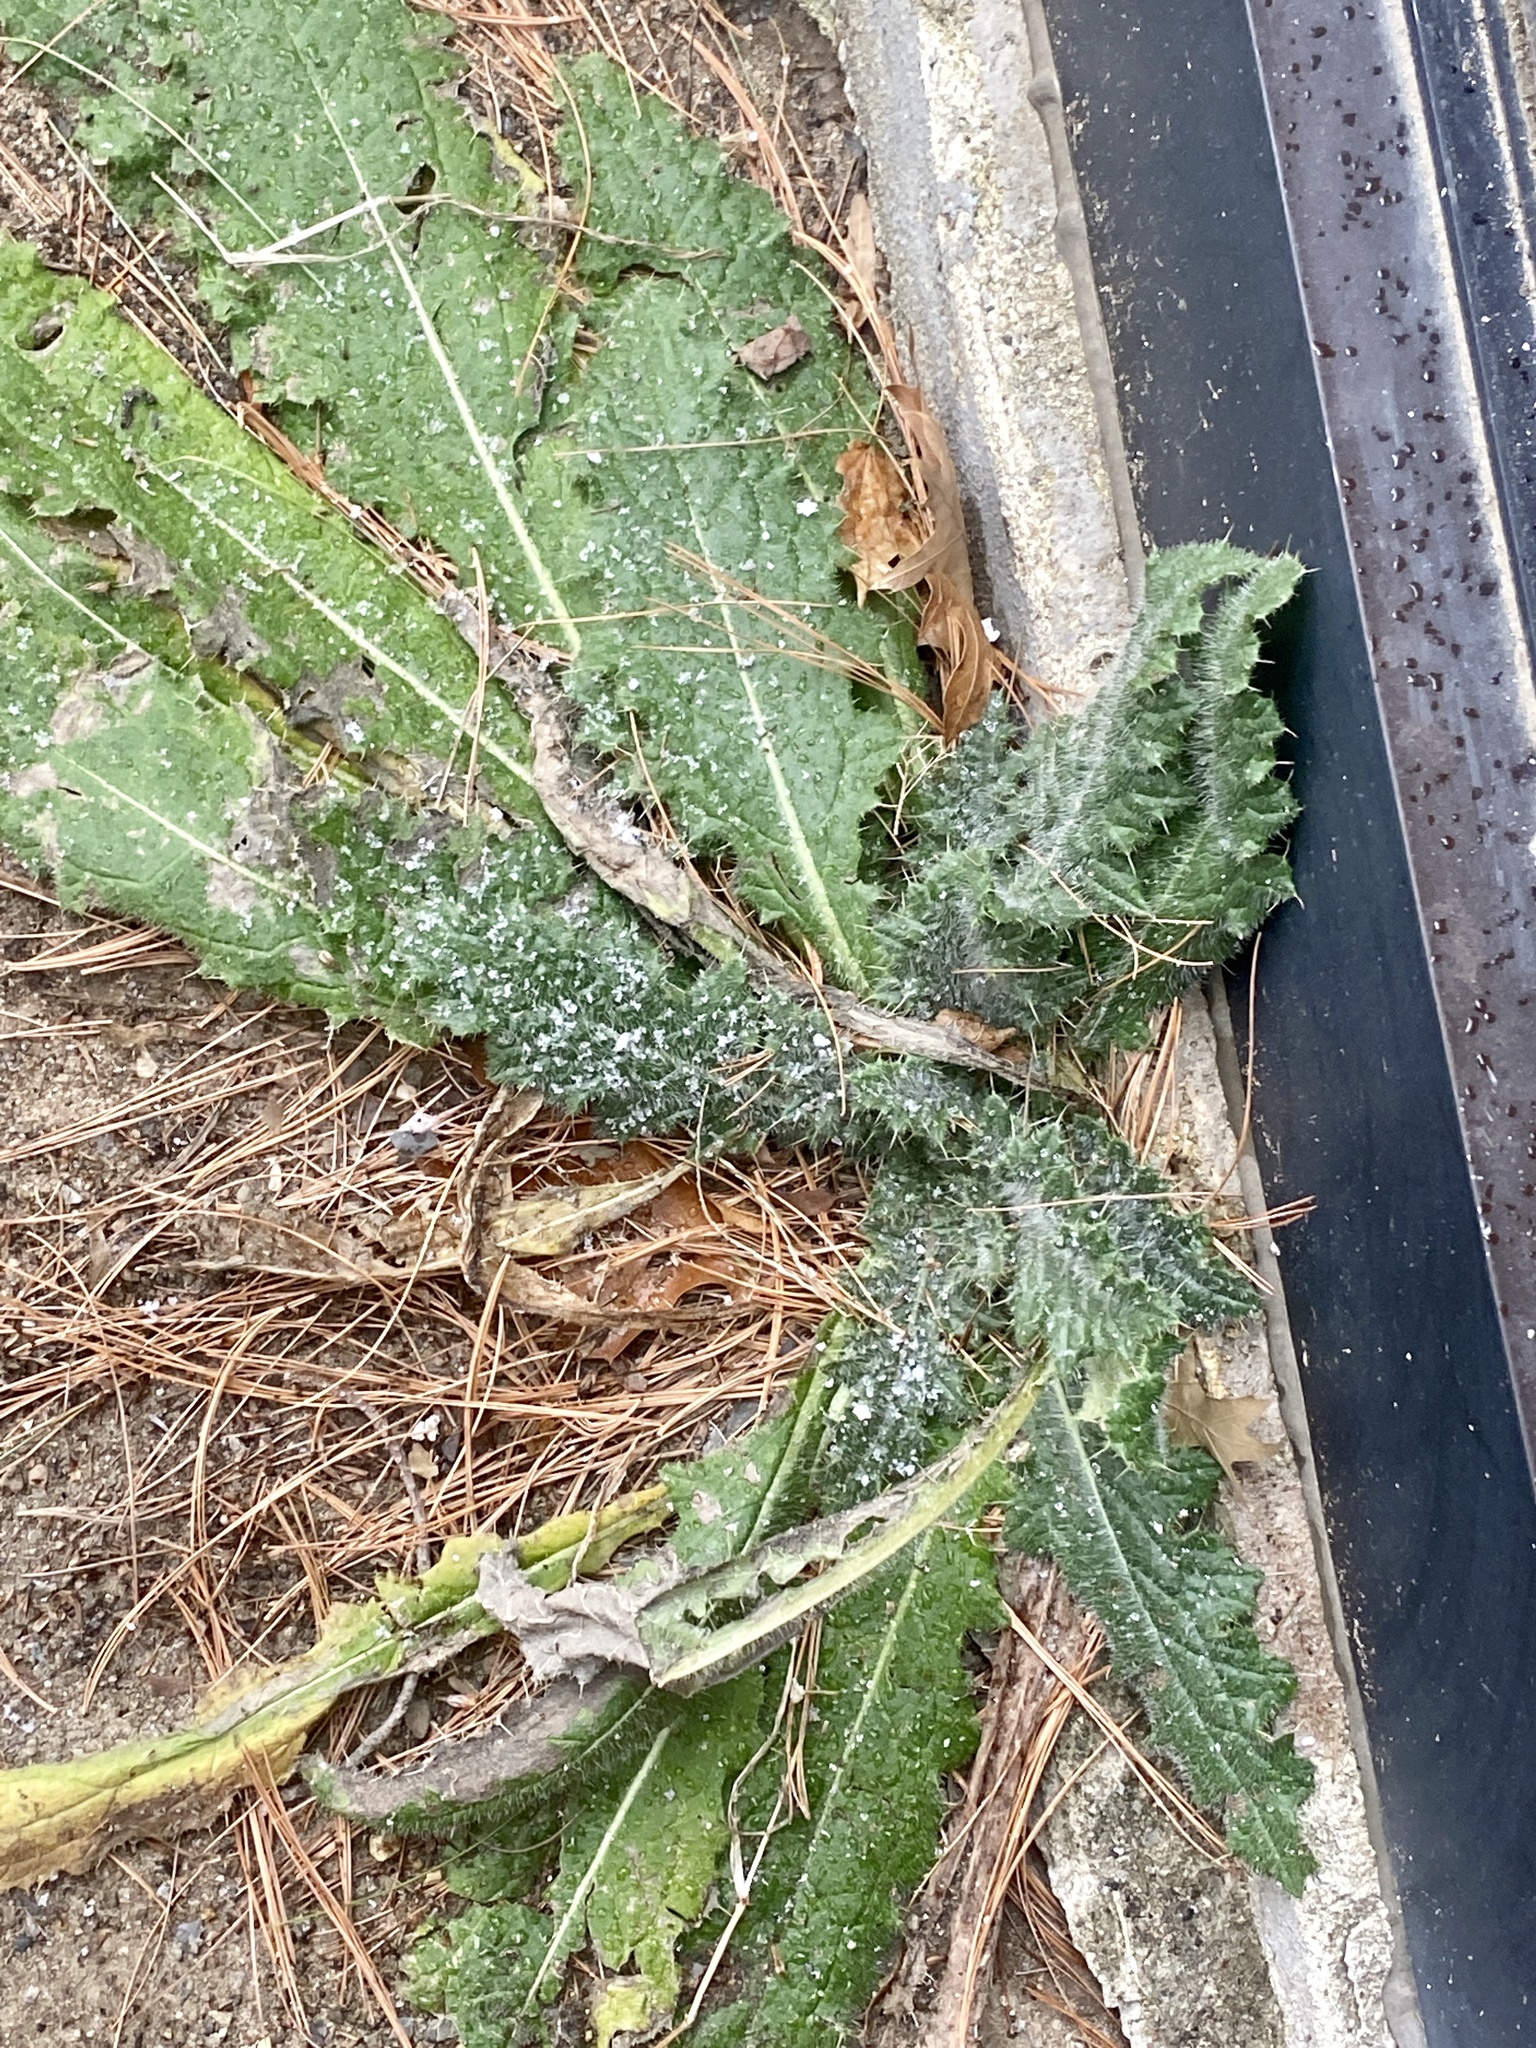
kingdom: Plantae
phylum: Tracheophyta
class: Magnoliopsida
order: Asterales
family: Asteraceae
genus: Cirsium
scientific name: Cirsium vulgare
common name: Bull thistle
